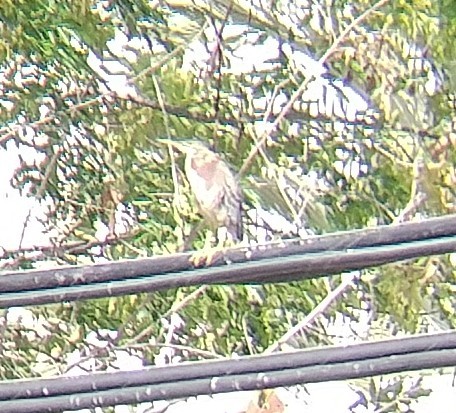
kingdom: Animalia
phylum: Chordata
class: Aves
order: Pelecaniformes
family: Ardeidae
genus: Butorides
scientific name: Butorides virescens
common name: Green heron
